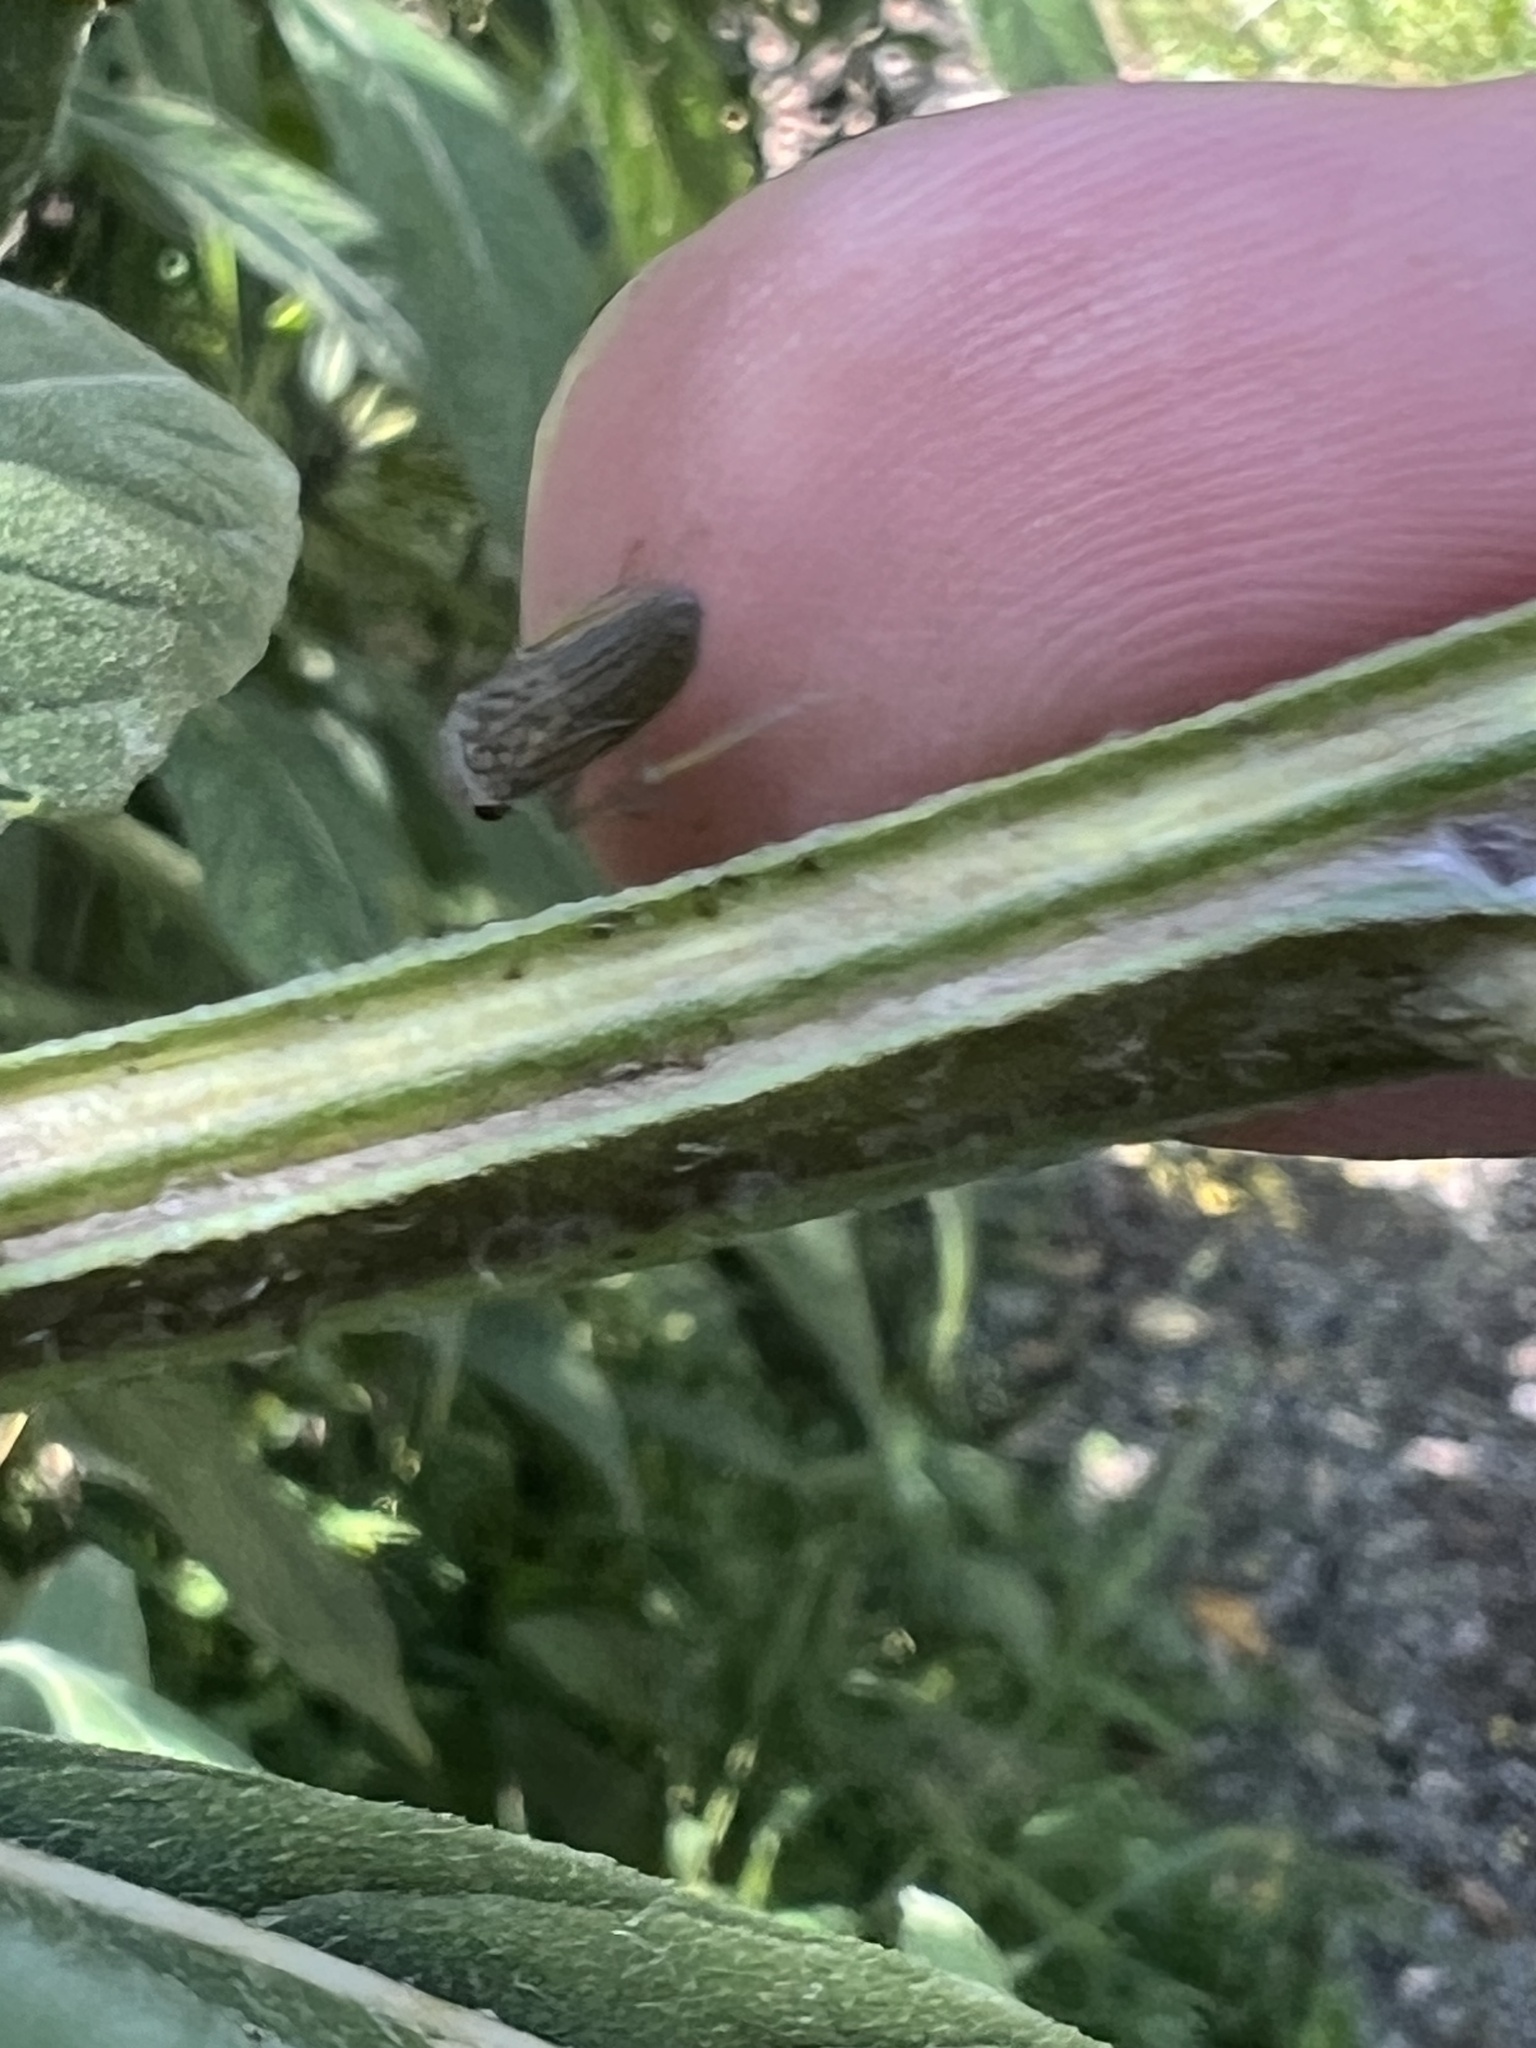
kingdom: Animalia
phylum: Arthropoda
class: Insecta
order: Hemiptera
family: Cicadellidae
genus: Oncometopia
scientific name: Oncometopia orbona
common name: Broad-headed sharpshooter
